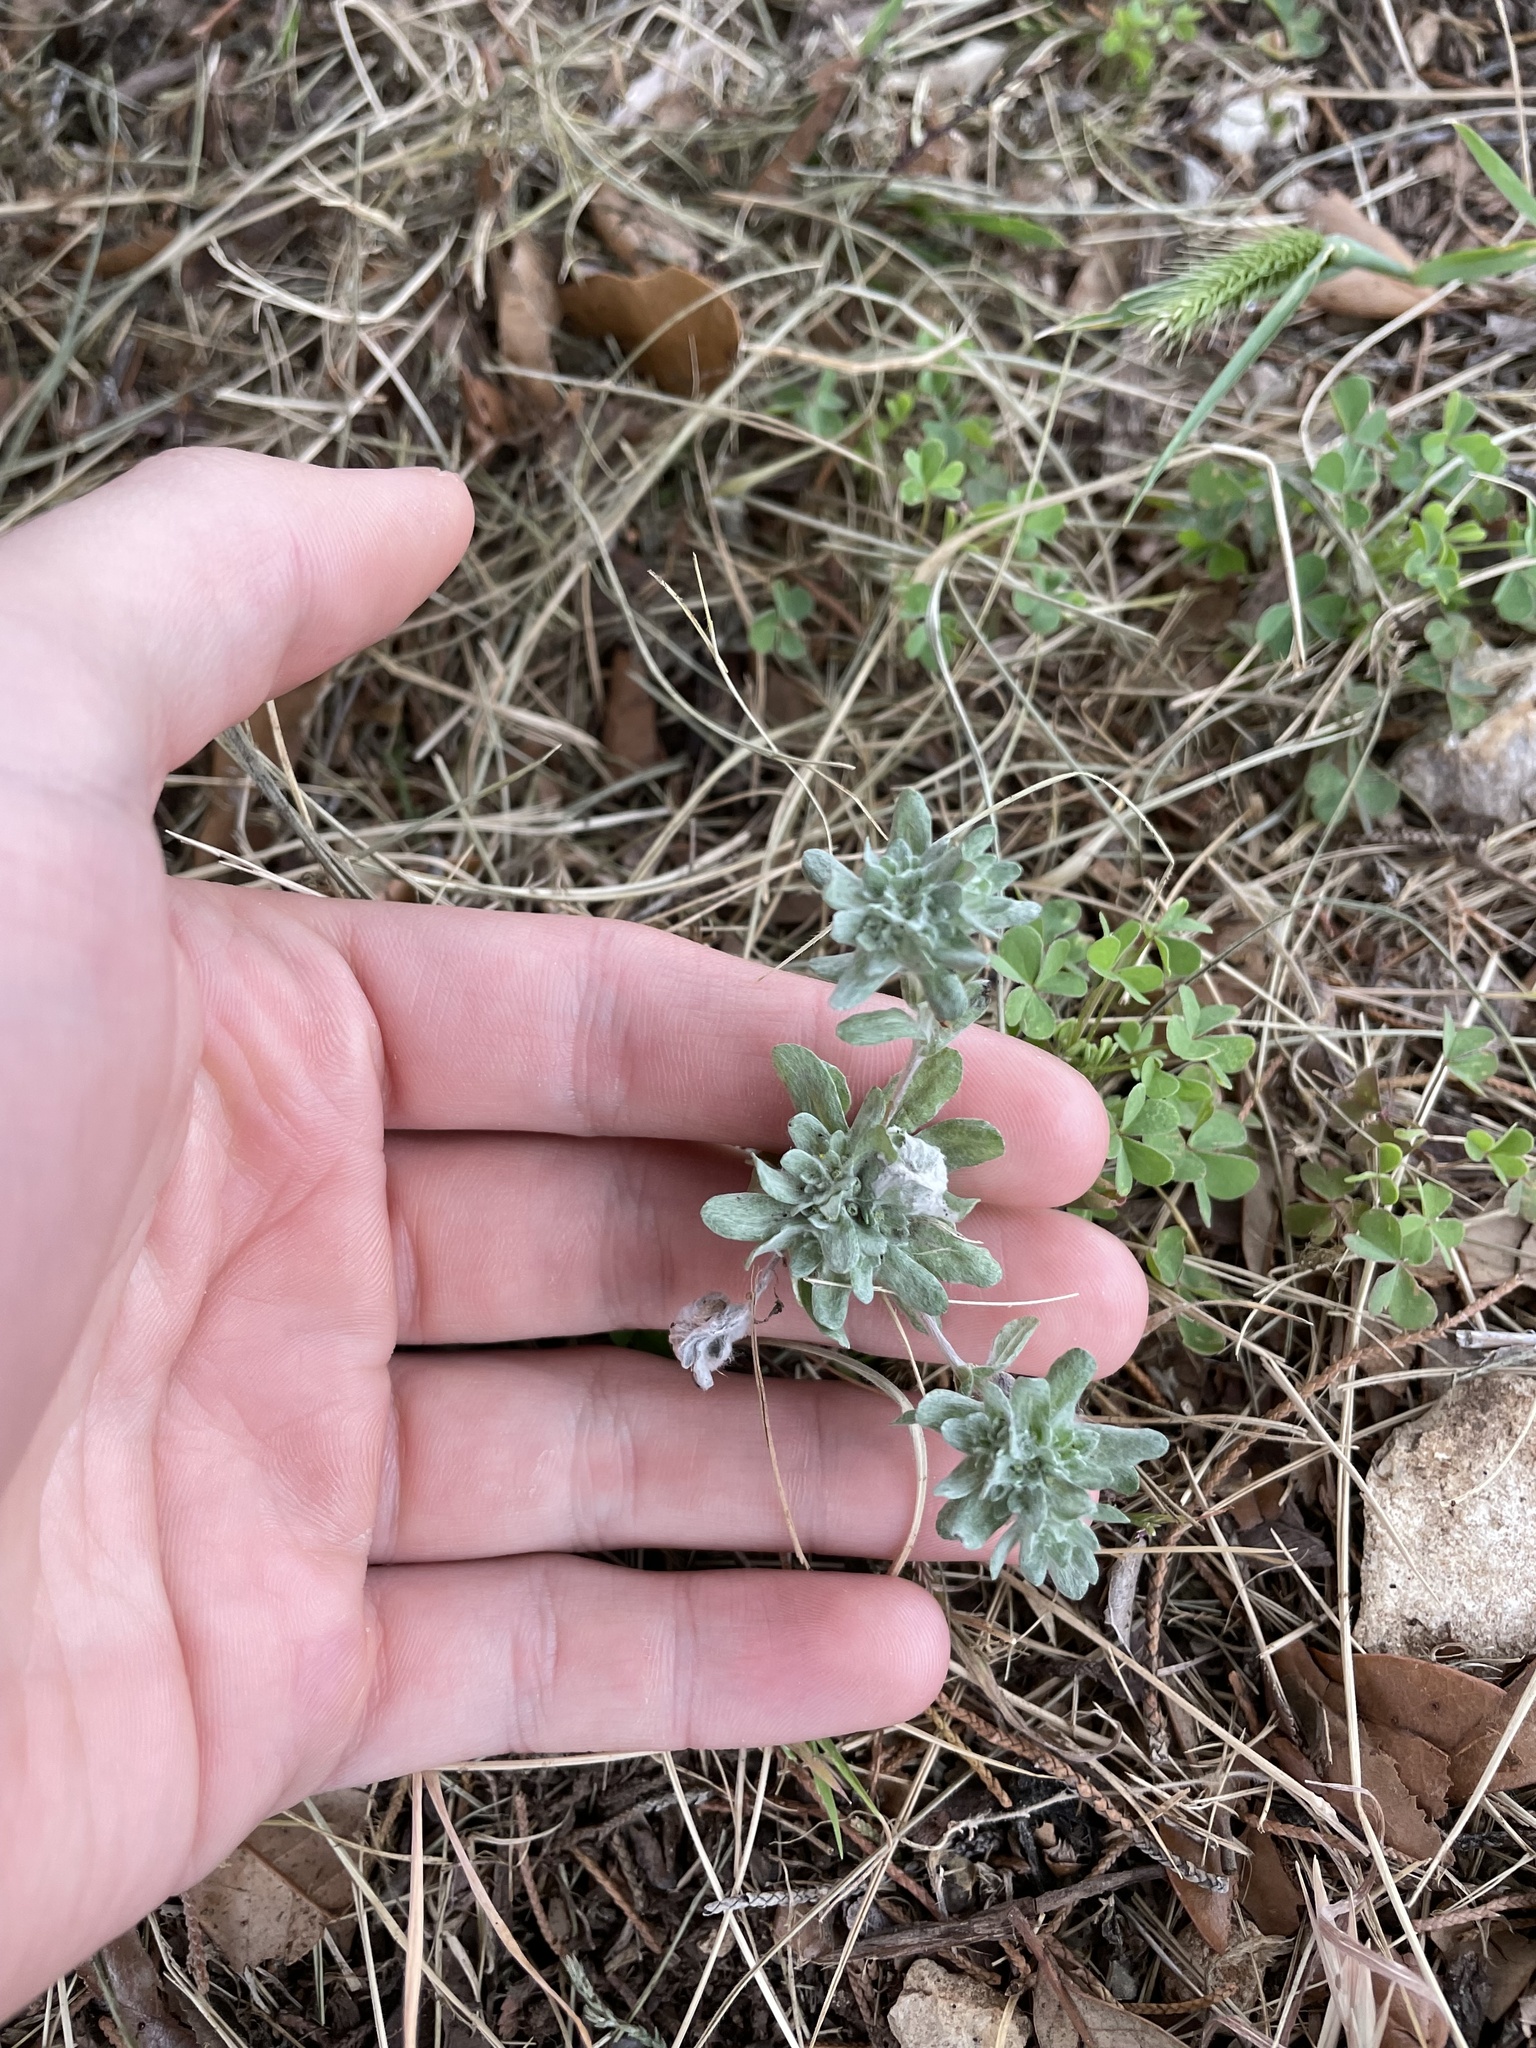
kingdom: Plantae
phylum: Tracheophyta
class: Magnoliopsida
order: Asterales
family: Asteraceae
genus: Diaperia
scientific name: Diaperia prolifera
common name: Big-head rabbit-tobacco
